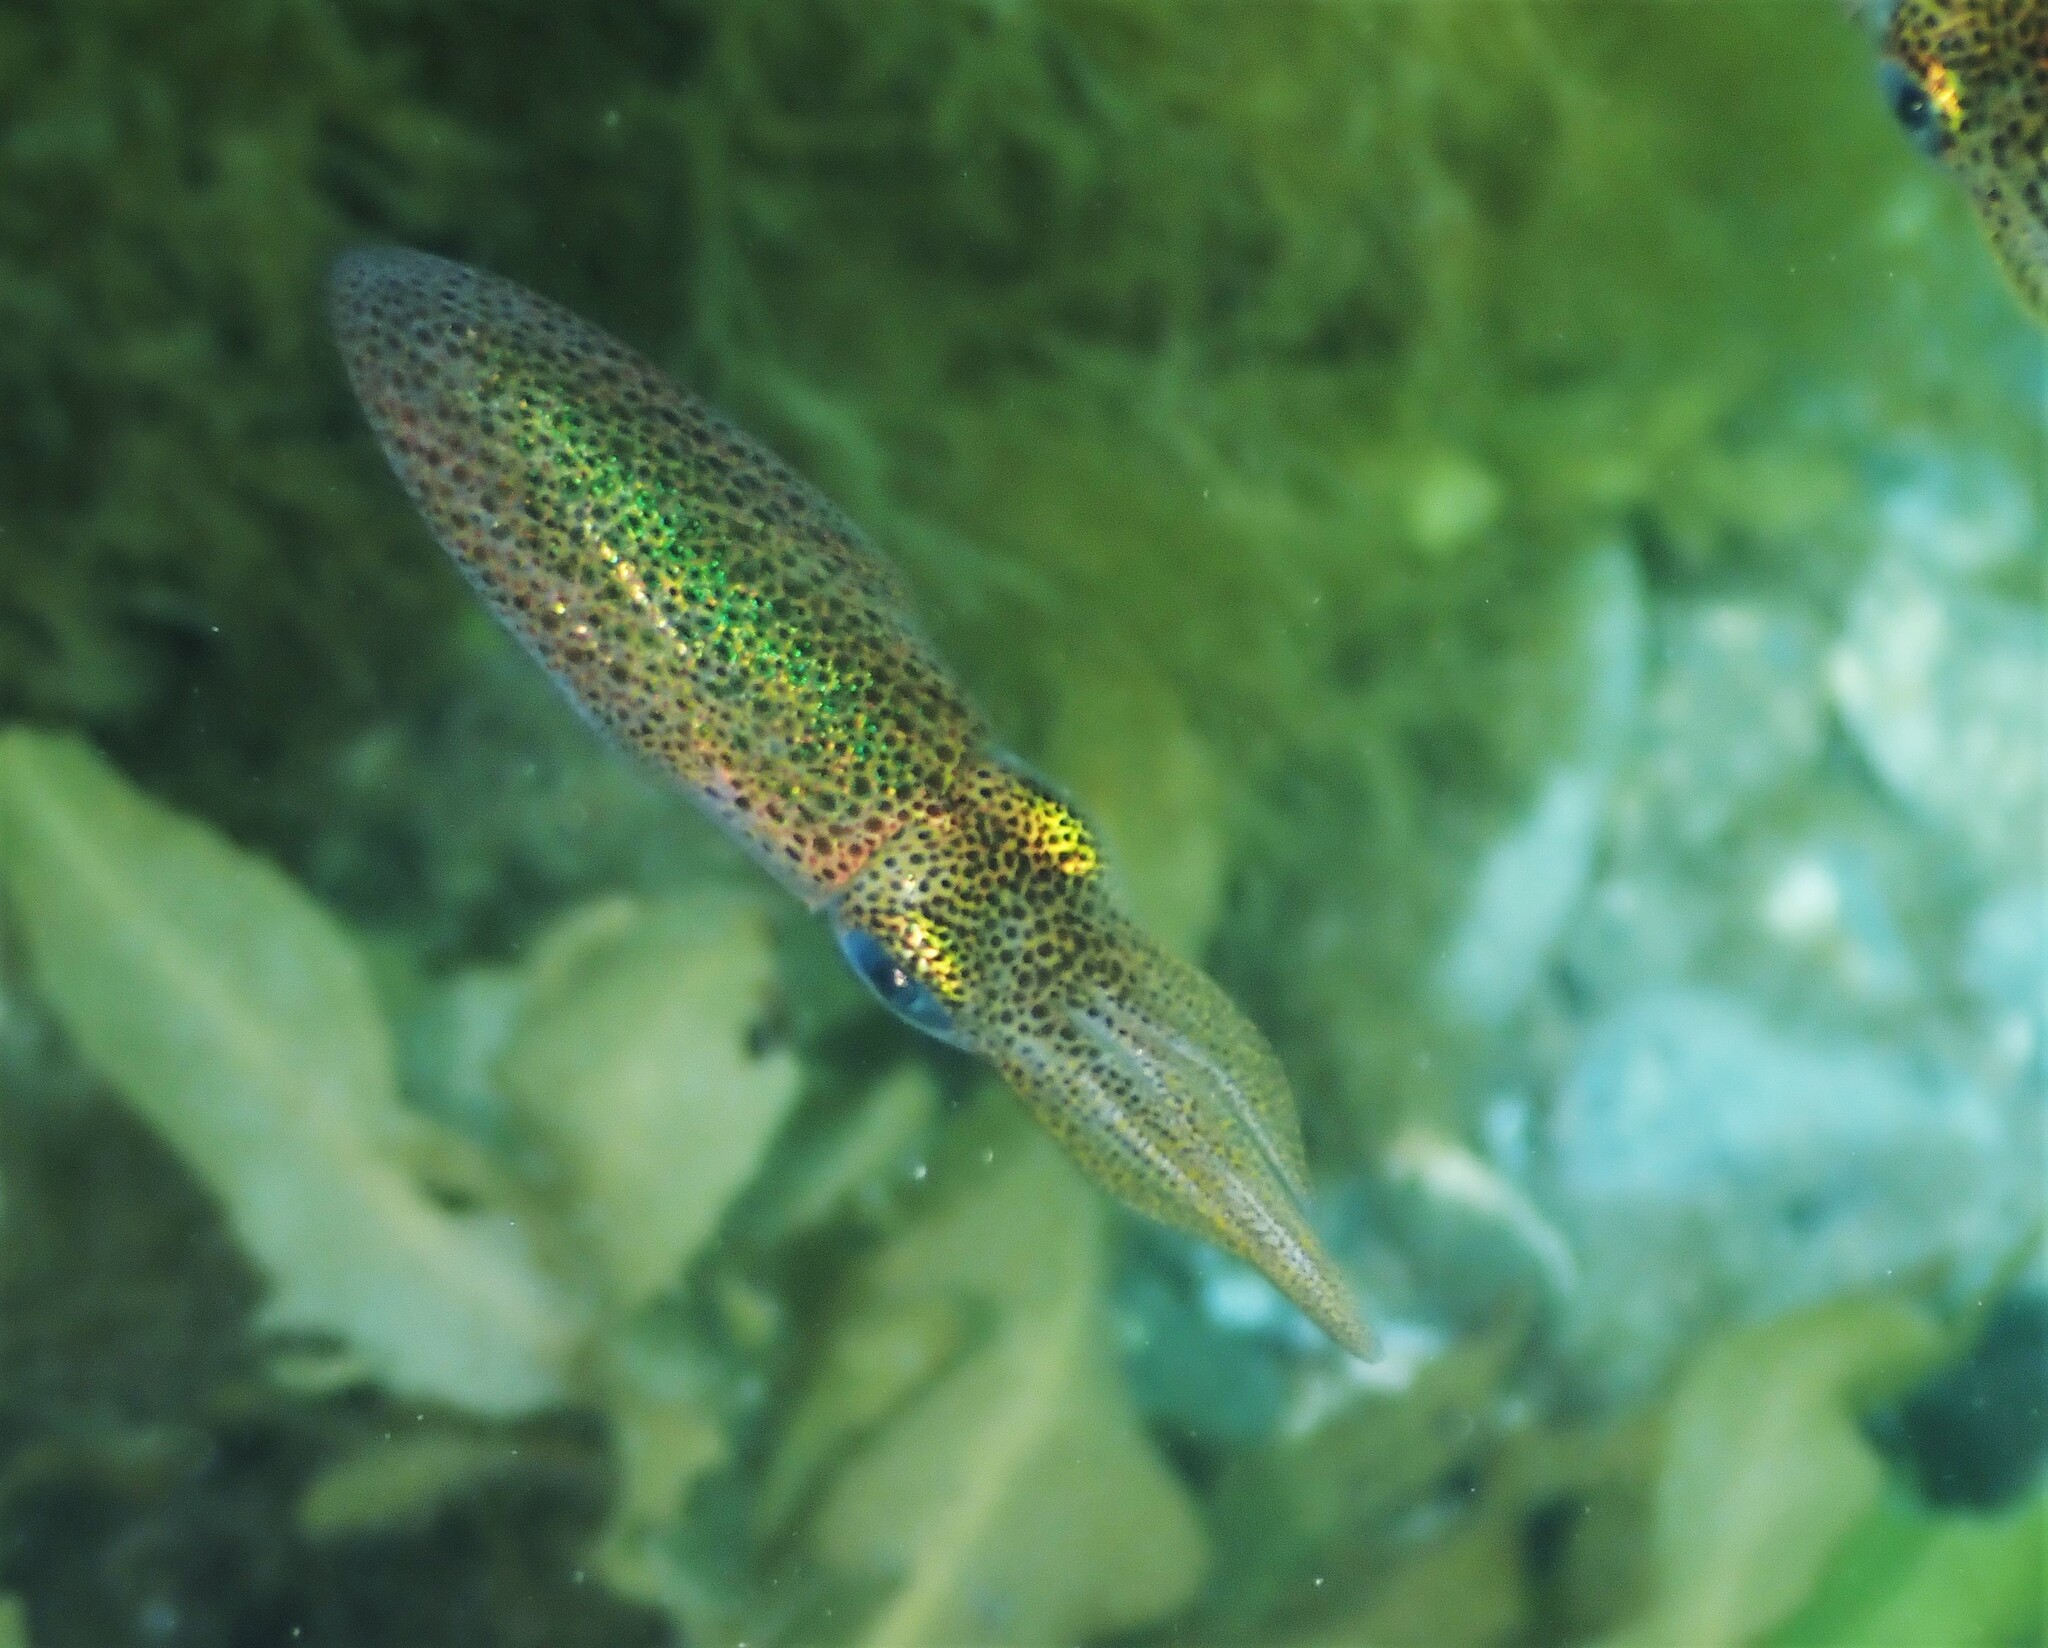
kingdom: Animalia
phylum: Mollusca
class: Cephalopoda
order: Myopsida
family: Loliginidae
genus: Sepioteuthis
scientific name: Sepioteuthis australis
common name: Southern reef squid
